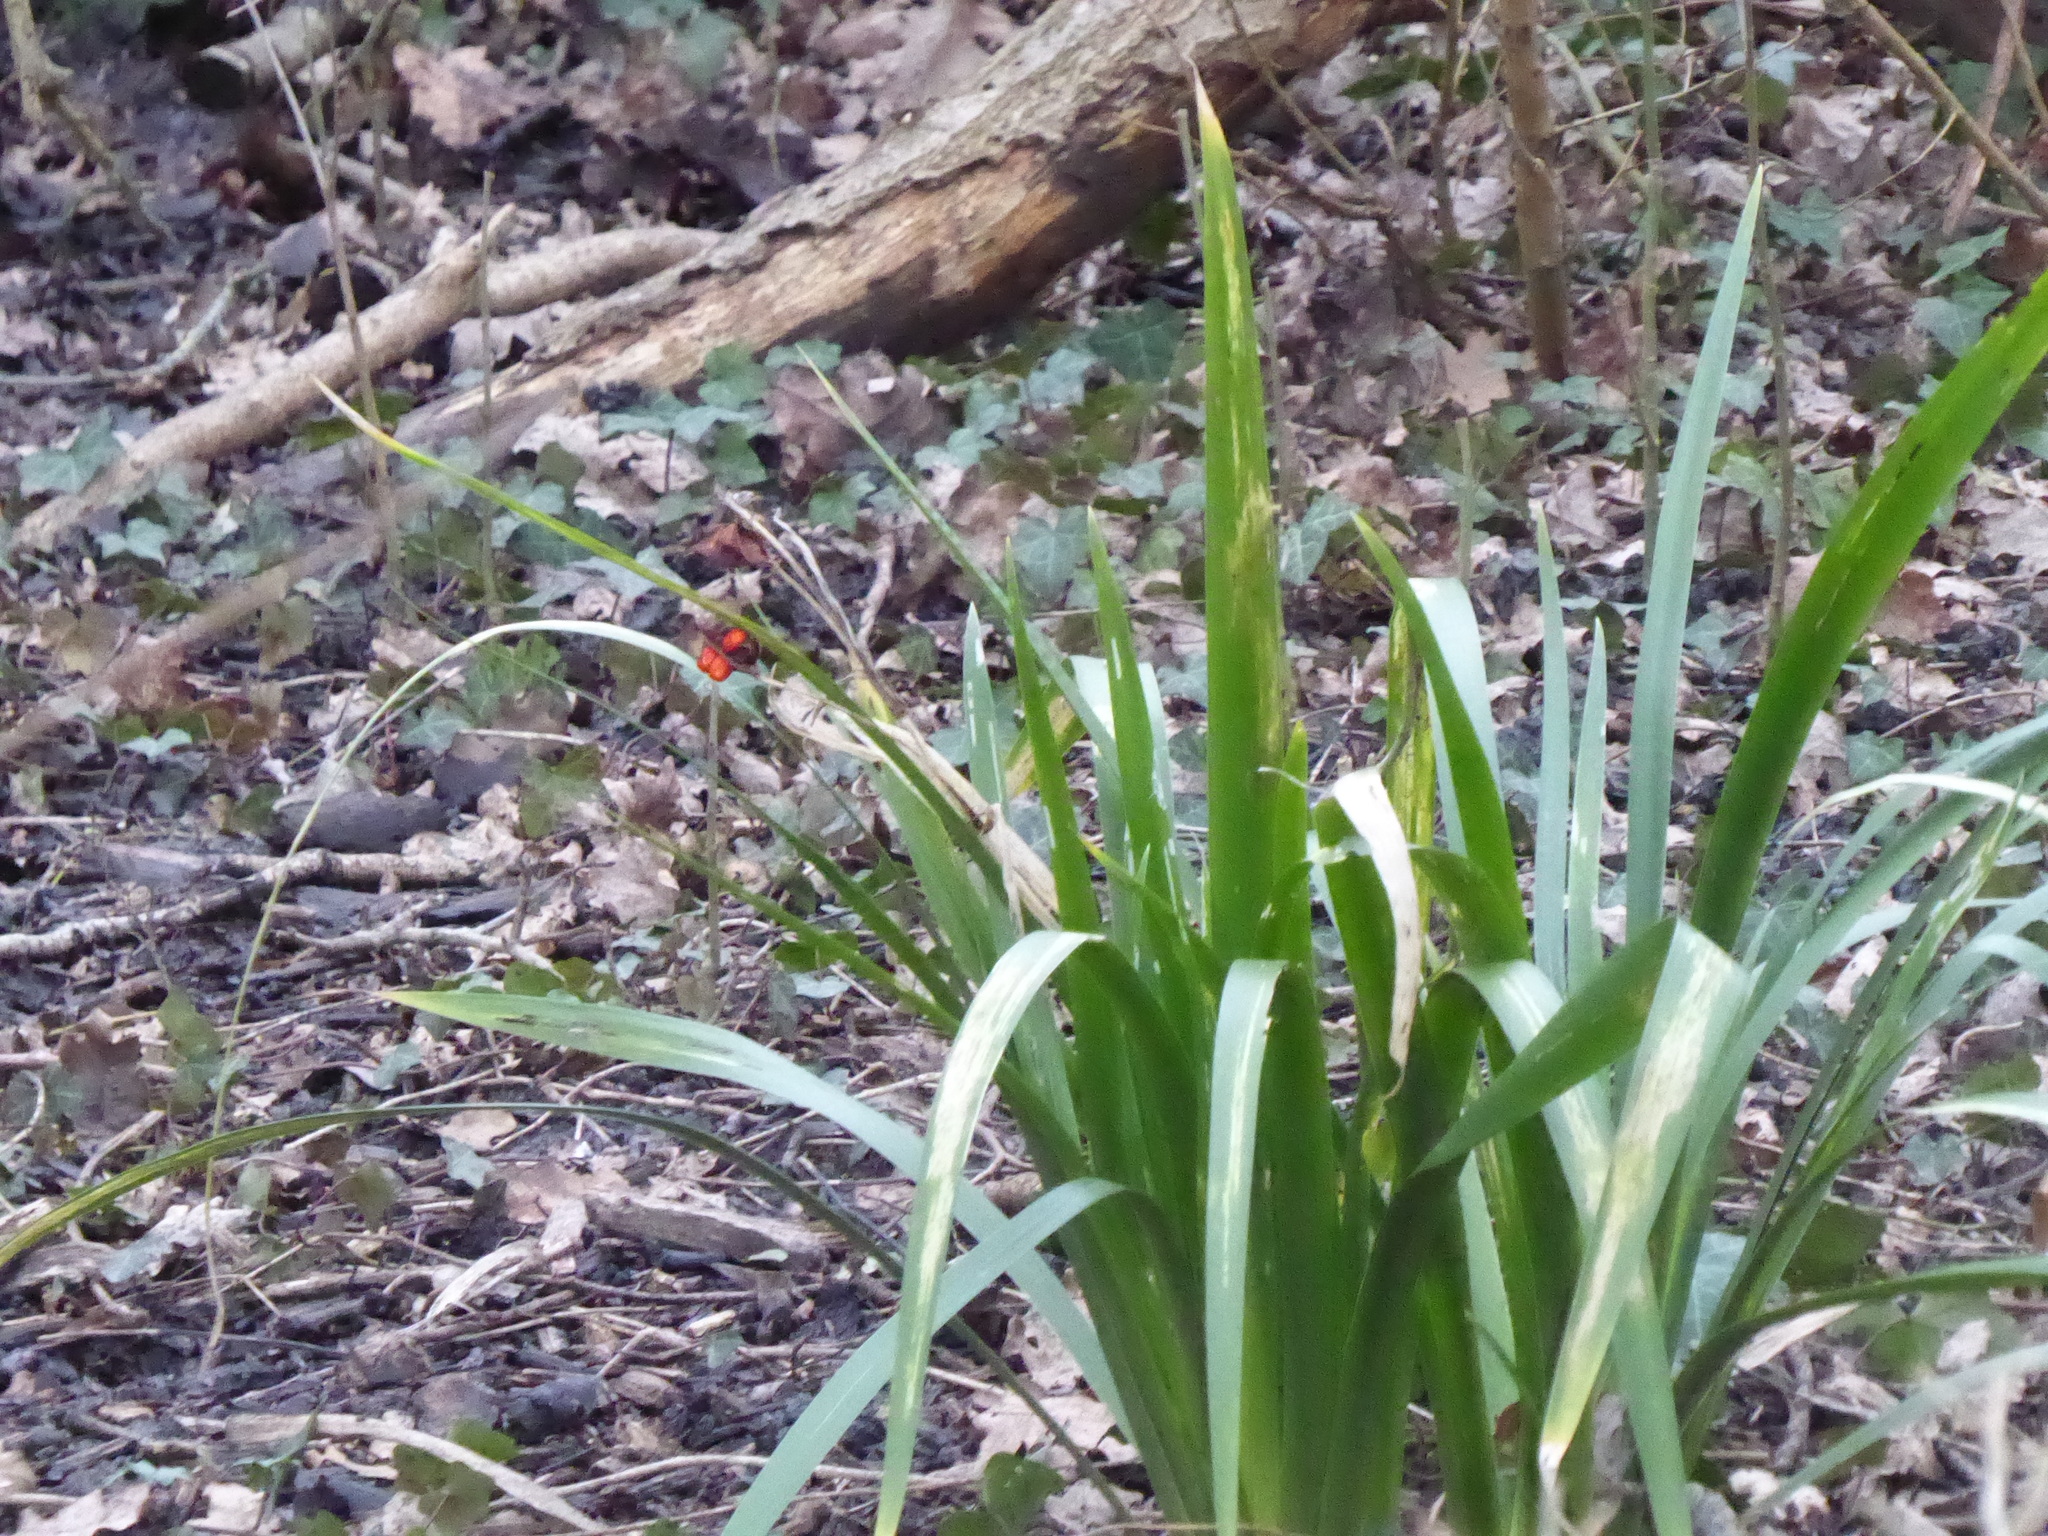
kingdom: Plantae
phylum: Tracheophyta
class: Liliopsida
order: Asparagales
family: Iridaceae
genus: Iris
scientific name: Iris foetidissima
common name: Stinking iris
